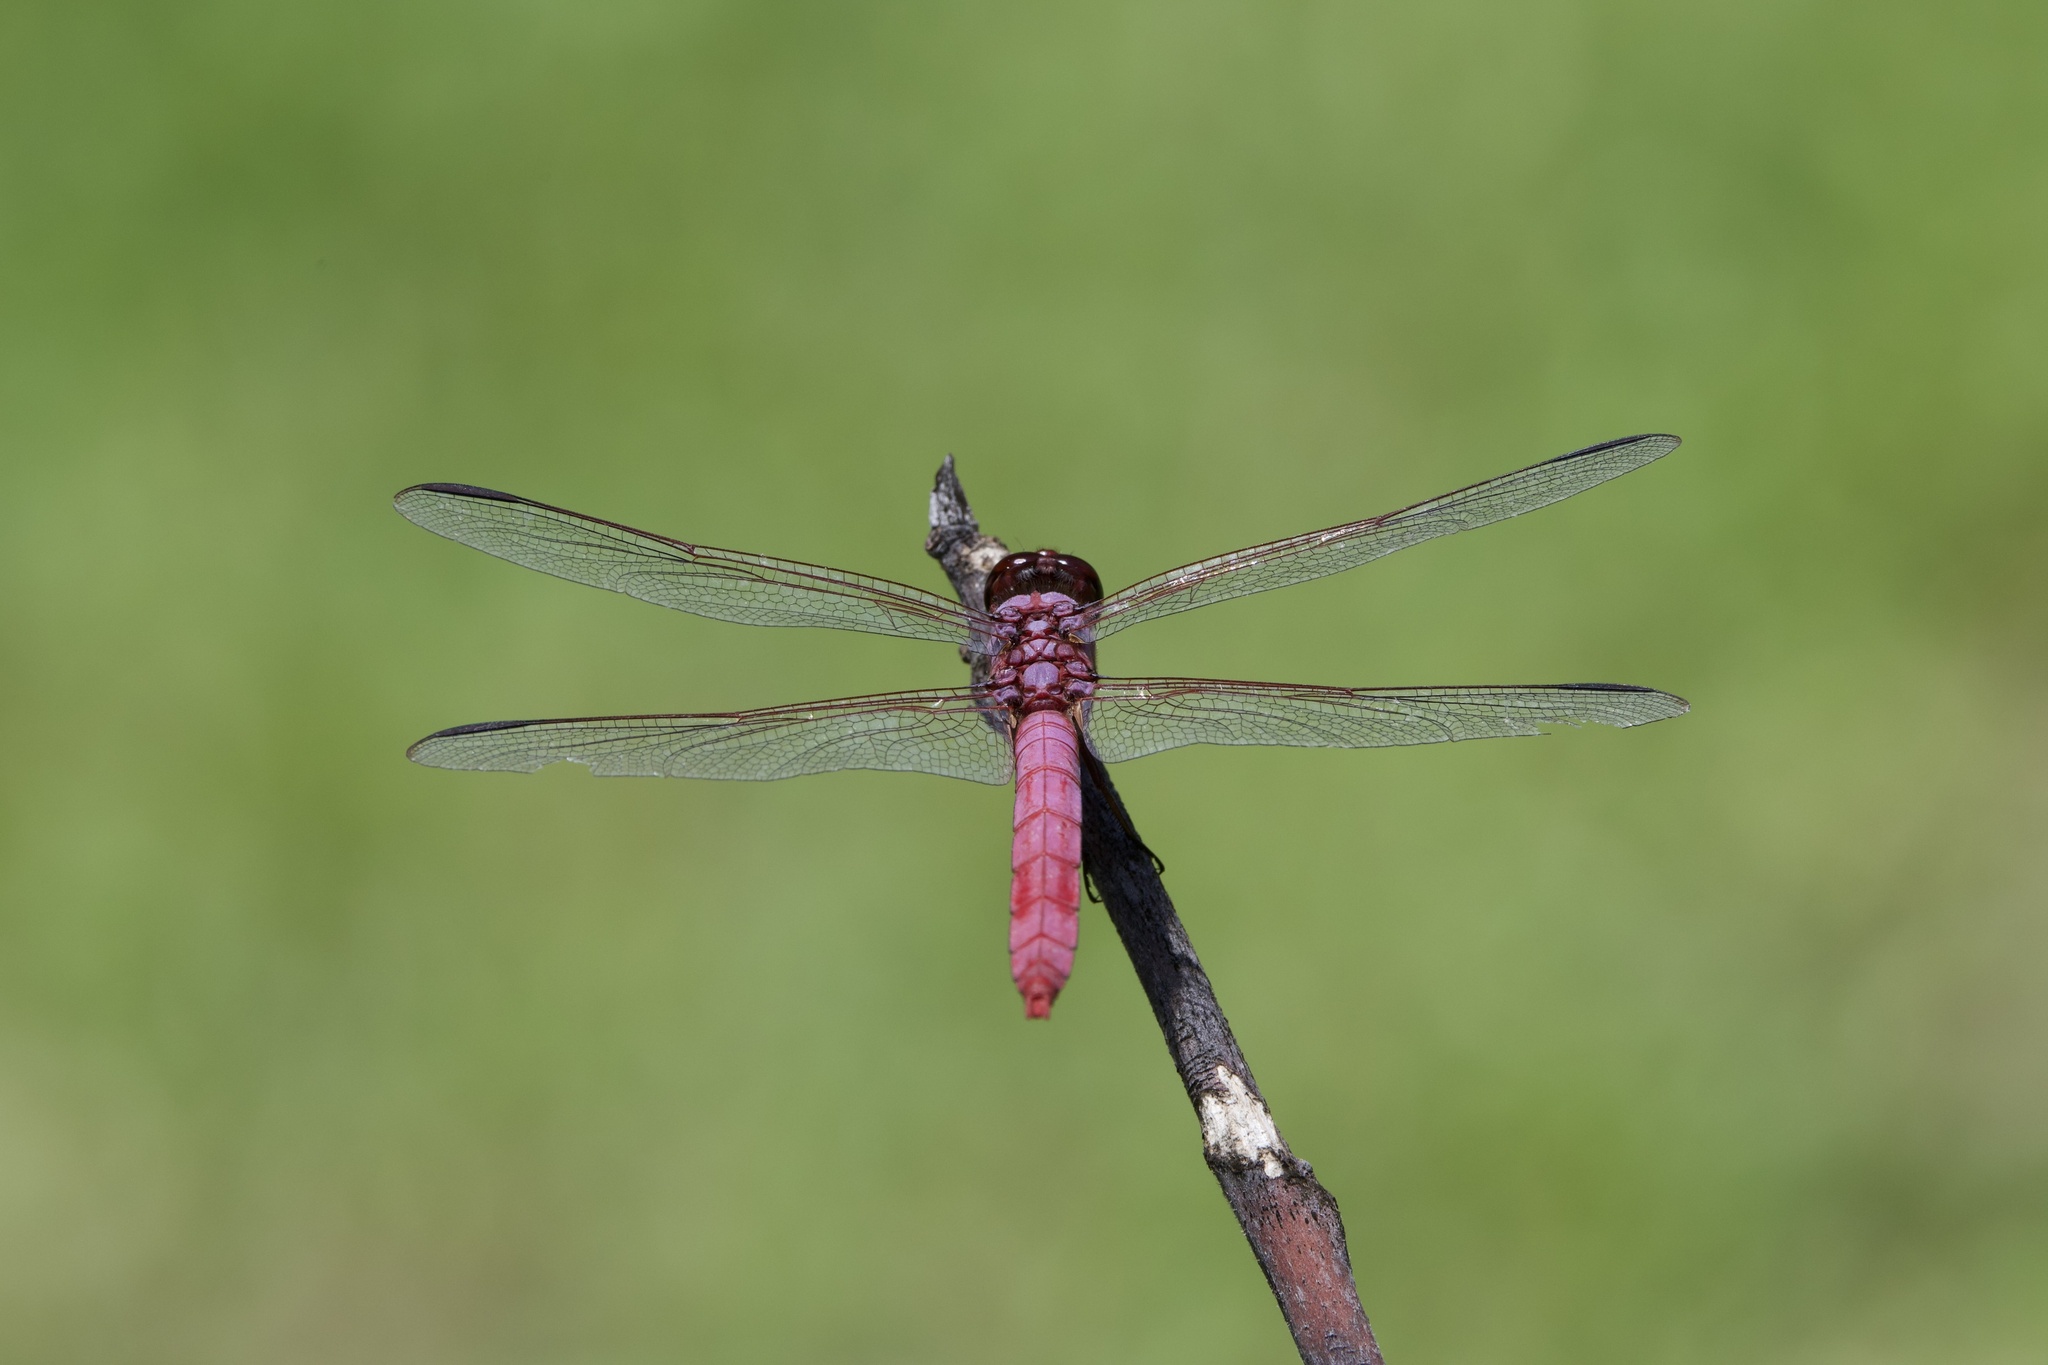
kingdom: Animalia
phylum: Arthropoda
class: Insecta
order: Odonata
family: Libellulidae
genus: Orthemis
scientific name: Orthemis ferruginea
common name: Roseate skimmer
